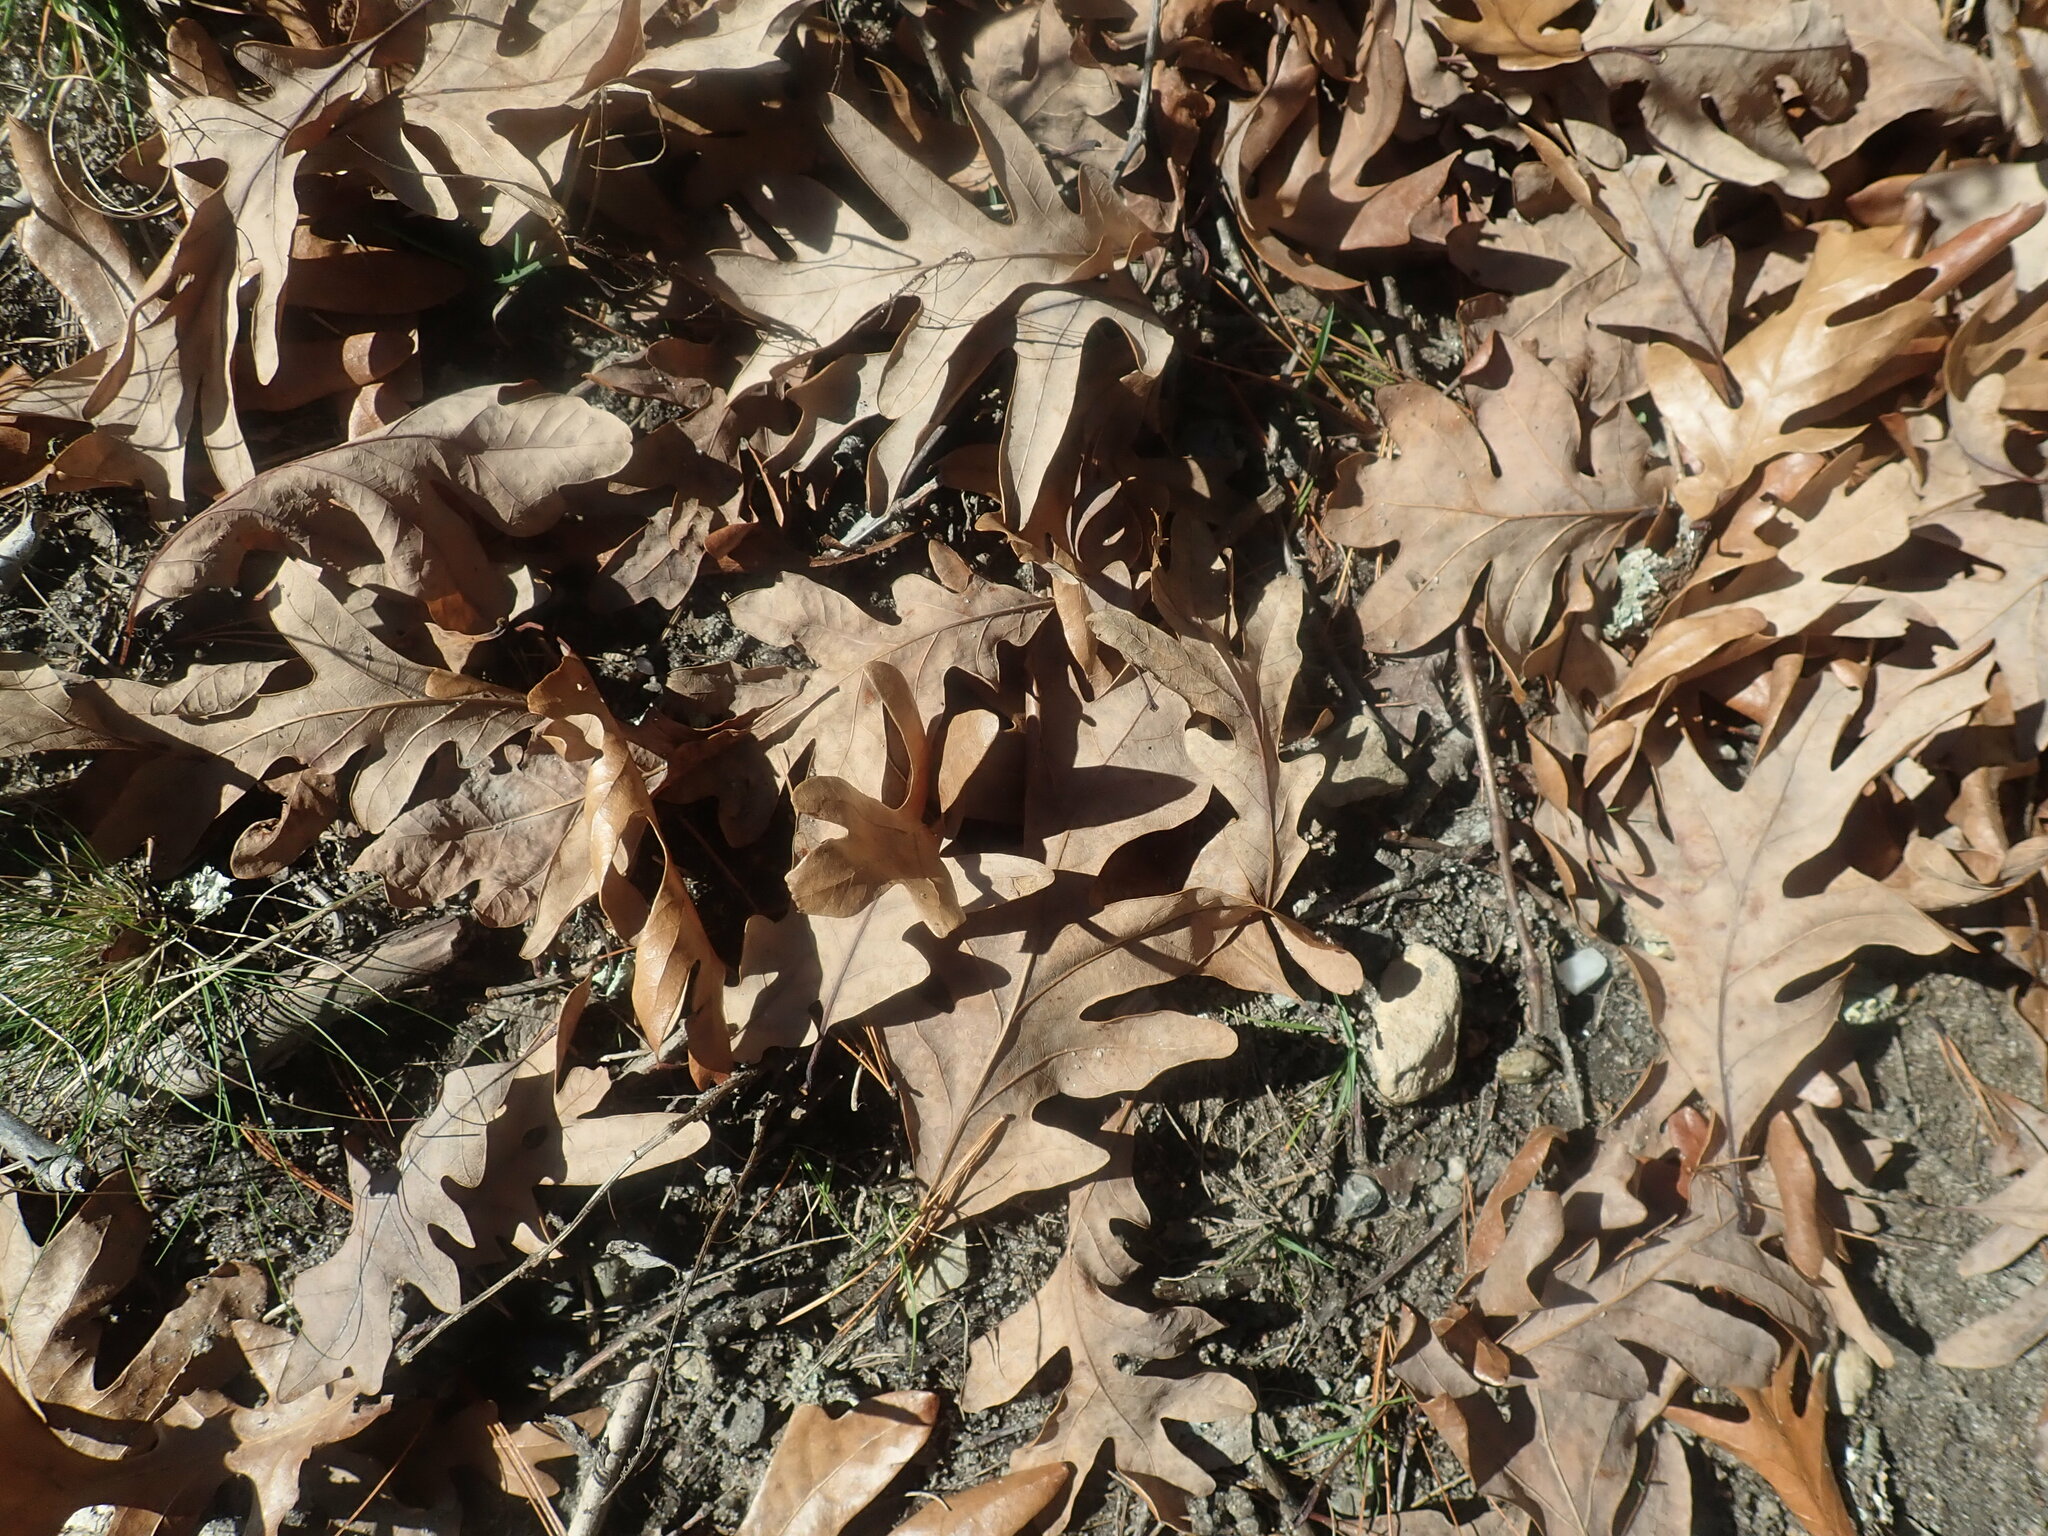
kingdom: Plantae
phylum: Tracheophyta
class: Magnoliopsida
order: Fagales
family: Fagaceae
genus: Quercus
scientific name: Quercus alba
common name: White oak
